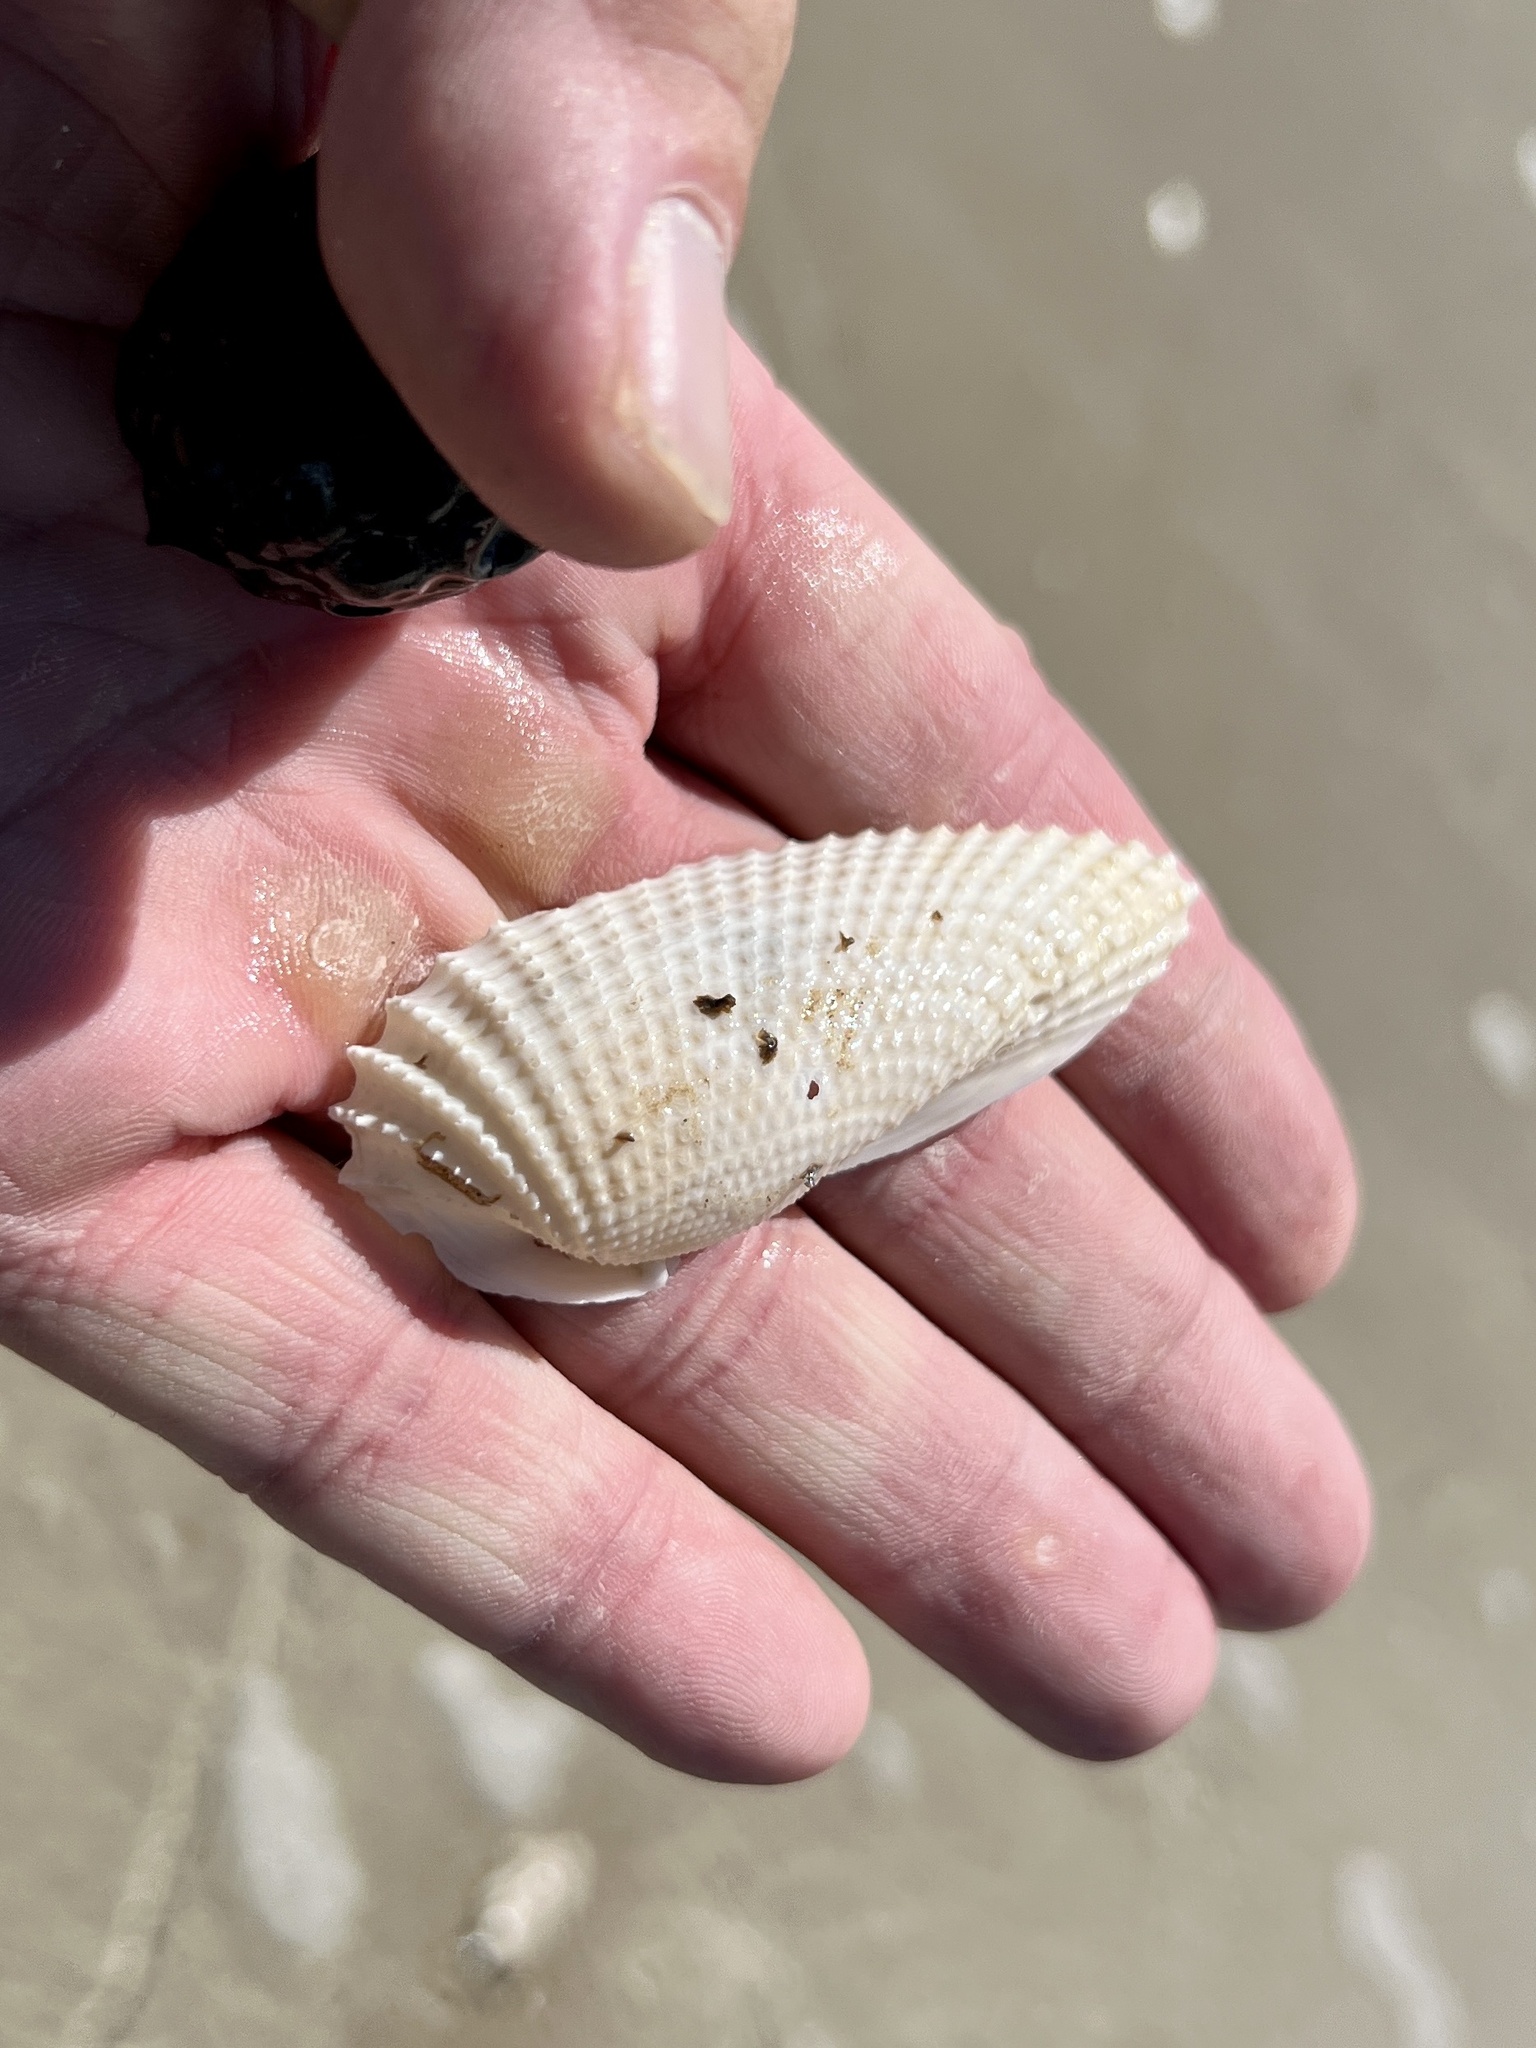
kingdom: Animalia
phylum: Mollusca
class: Bivalvia
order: Myida
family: Pholadidae
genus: Cyrtopleura
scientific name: Cyrtopleura costata
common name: Angel wing
